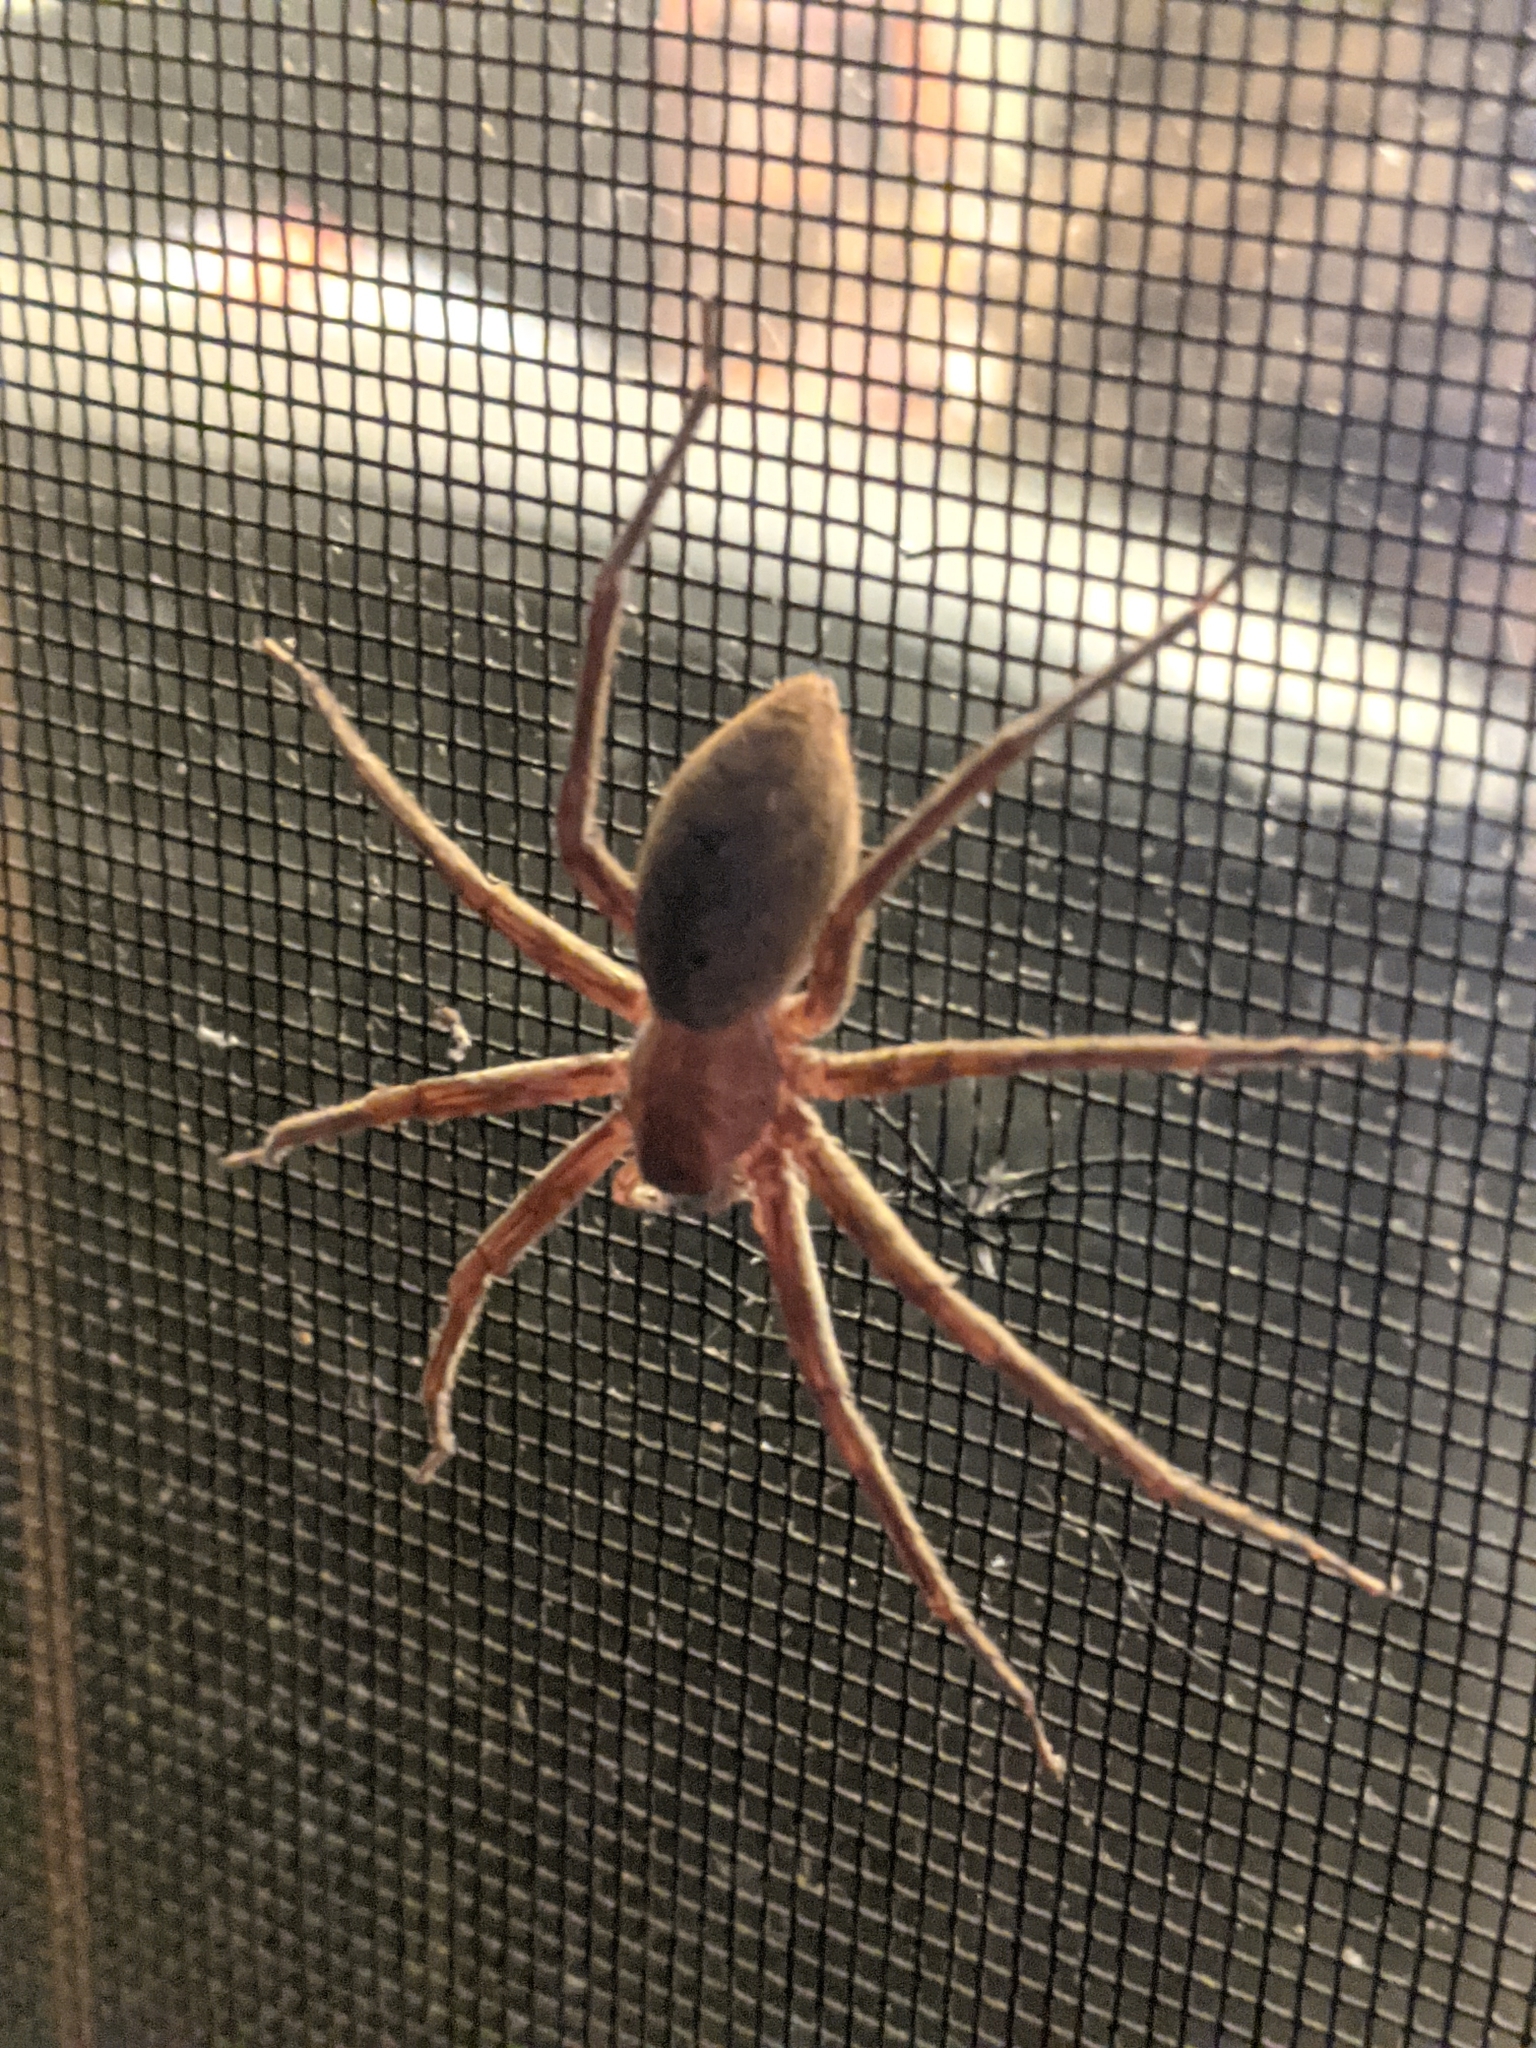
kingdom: Animalia
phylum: Arthropoda
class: Arachnida
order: Araneae
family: Pisauridae
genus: Pisaurina
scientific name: Pisaurina mira
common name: American nursery web spider
